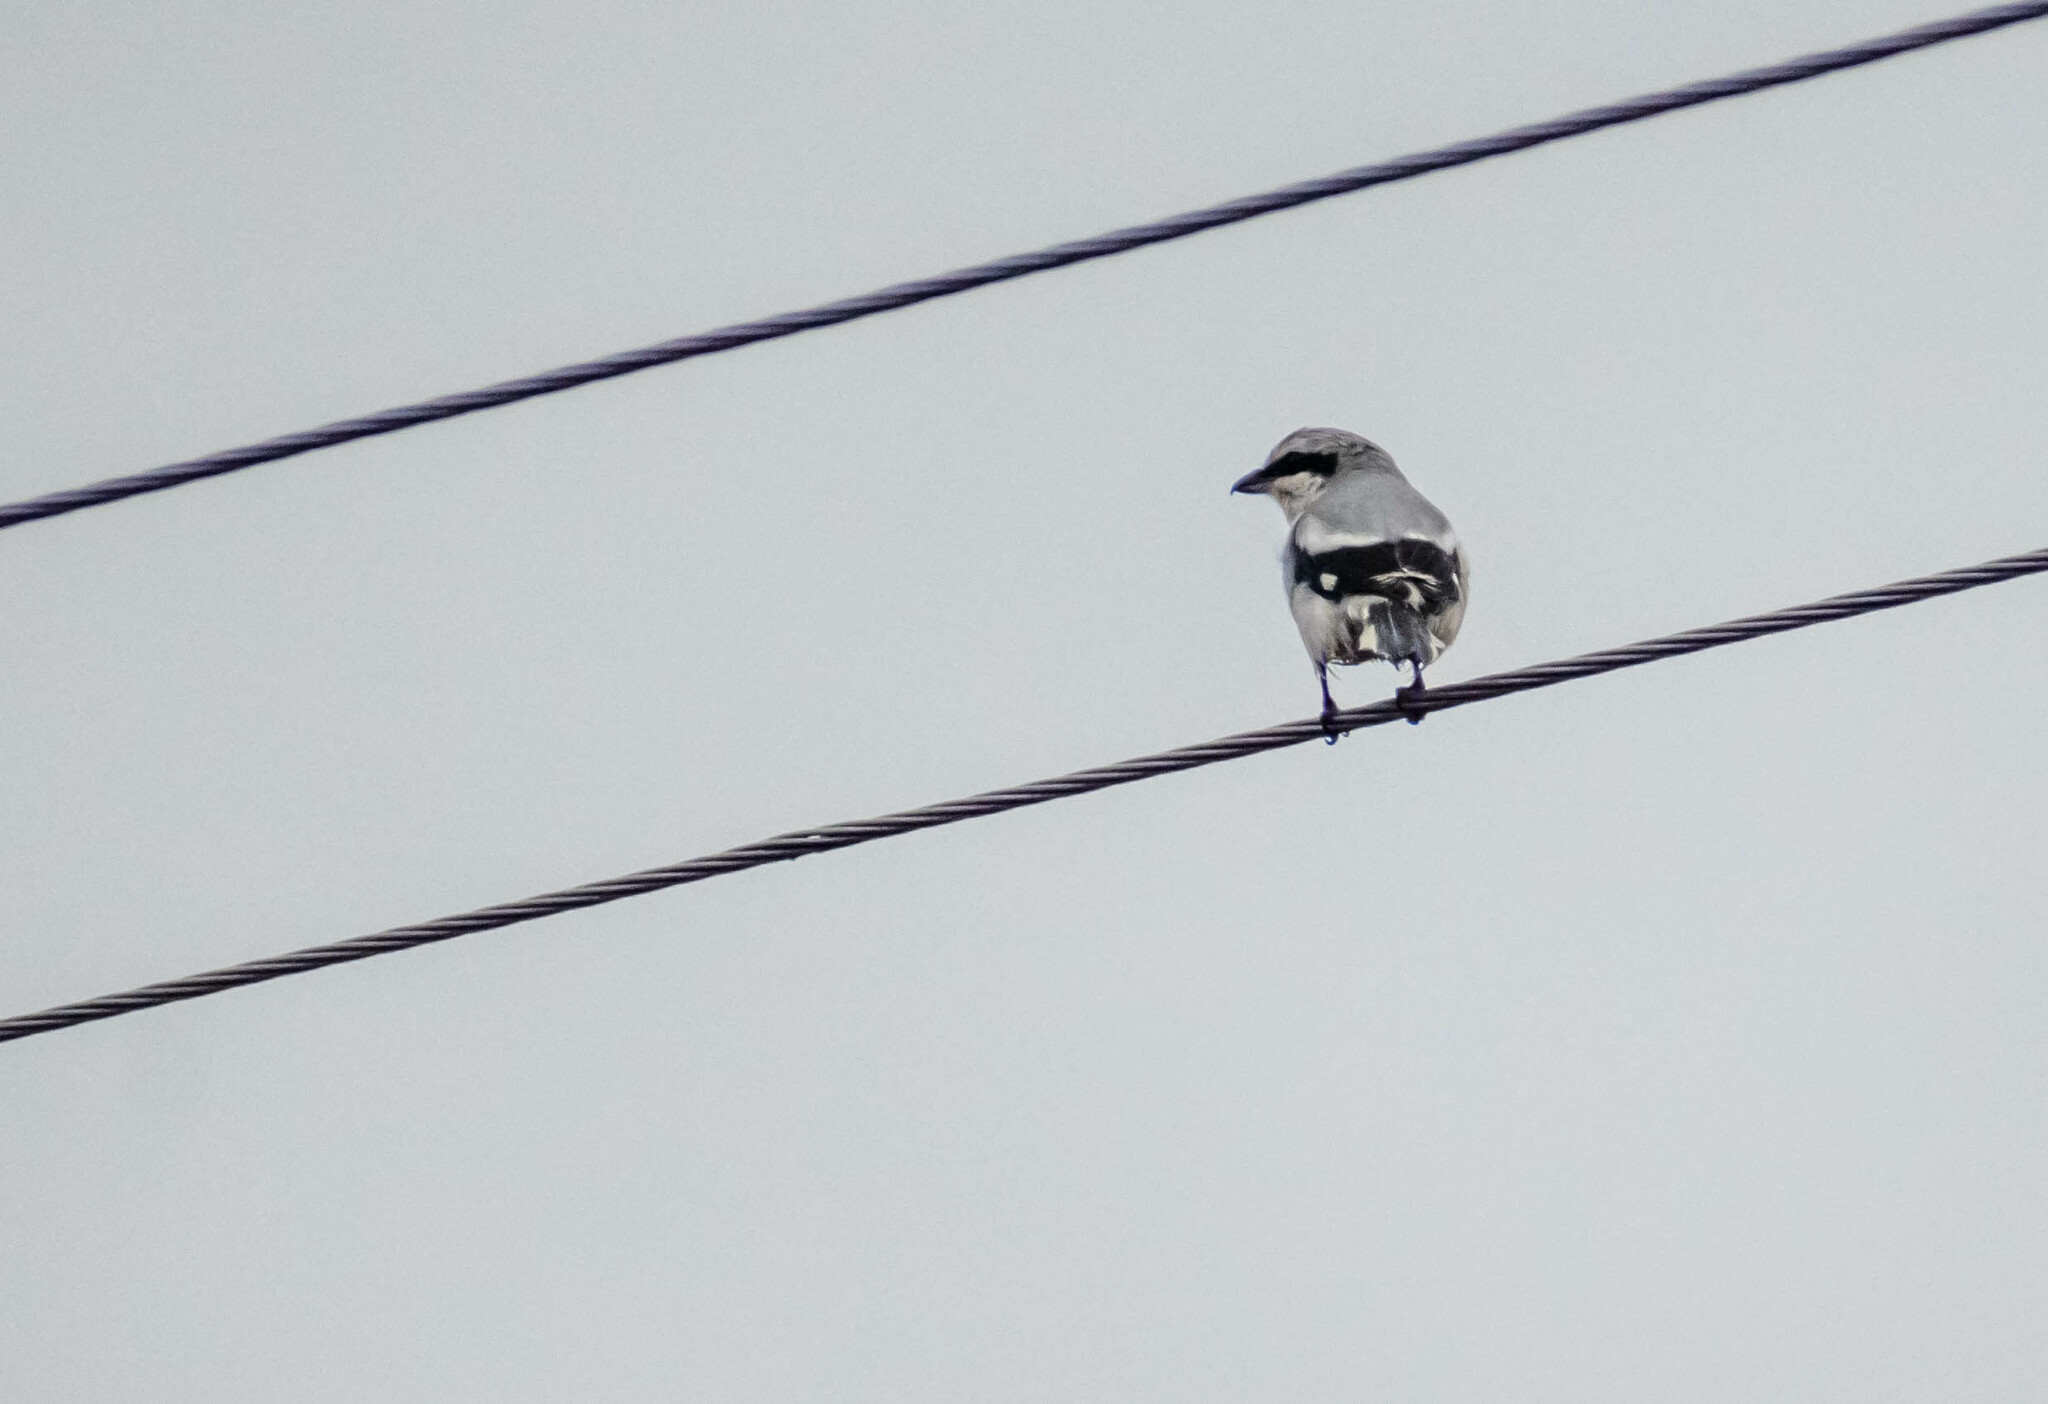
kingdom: Animalia
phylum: Chordata
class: Aves
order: Passeriformes
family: Laniidae
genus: Lanius
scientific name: Lanius excubitor
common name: Great grey shrike
